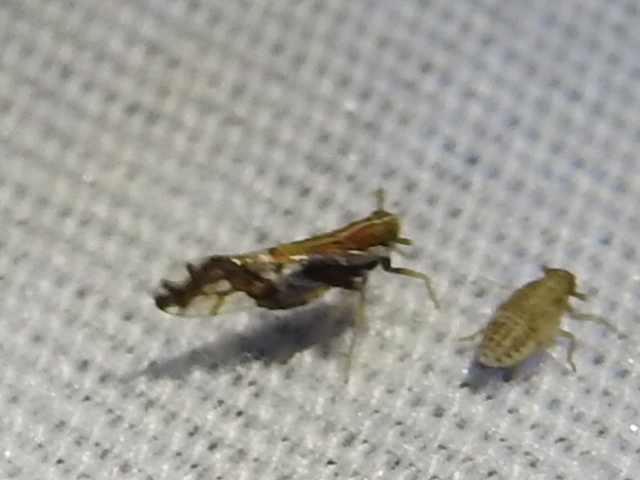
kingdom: Animalia
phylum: Arthropoda
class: Insecta
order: Hemiptera
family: Delphacidae
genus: Liburniella
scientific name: Liburniella ornata
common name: Ornate planthopper
